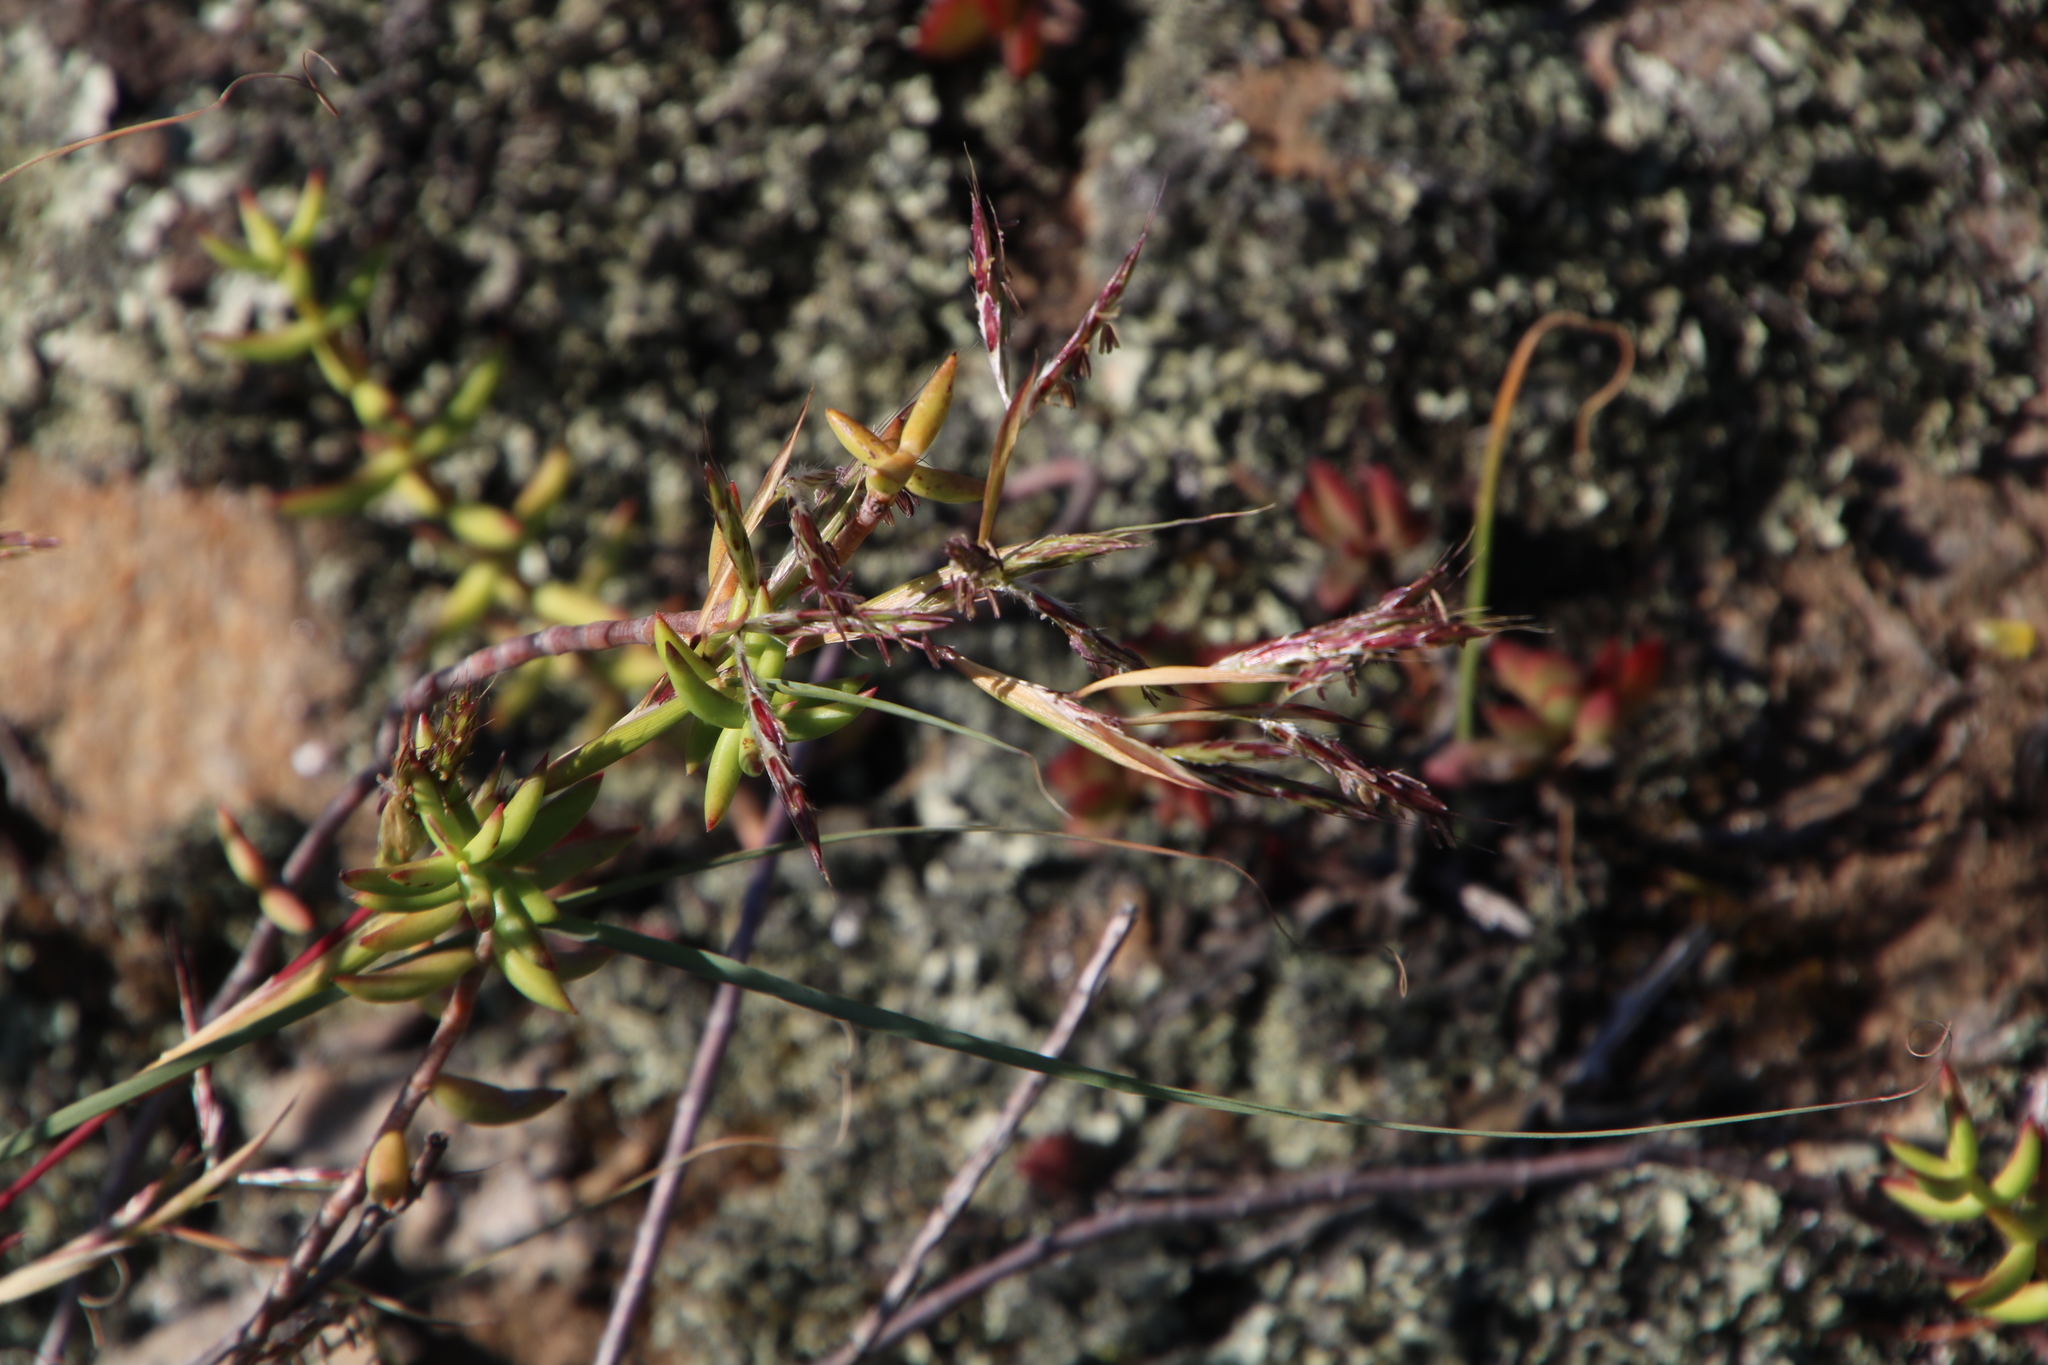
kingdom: Plantae
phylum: Tracheophyta
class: Liliopsida
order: Poales
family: Poaceae
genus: Hyparrhenia
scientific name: Hyparrhenia hirta
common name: Thatching grass
